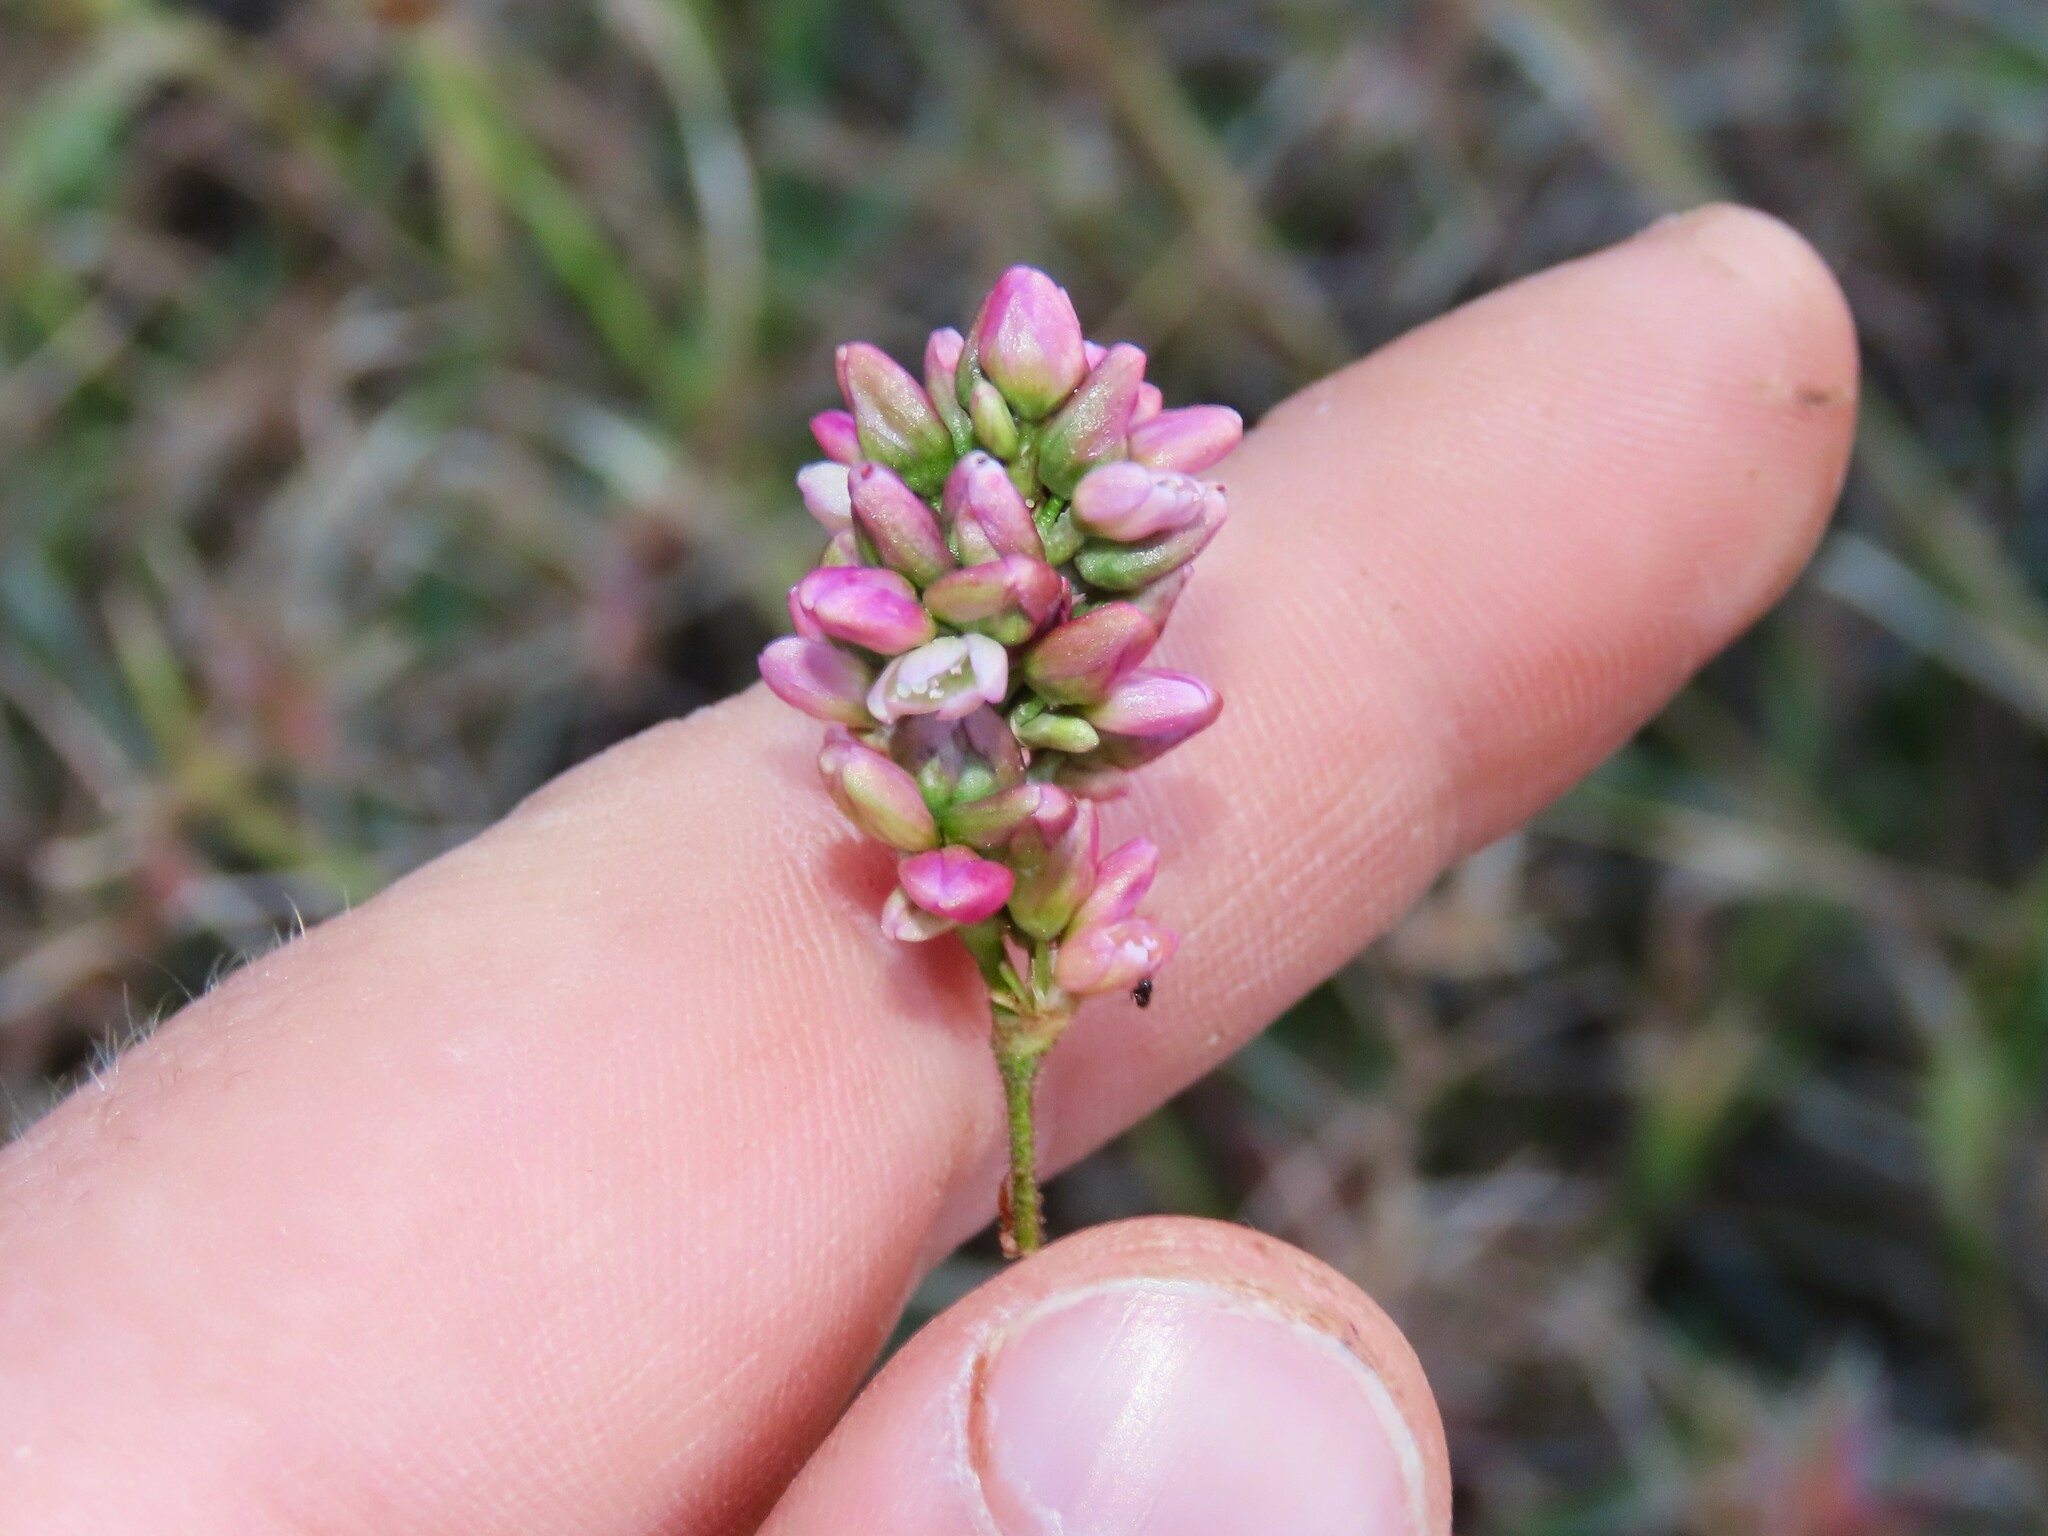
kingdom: Plantae
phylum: Tracheophyta
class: Magnoliopsida
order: Caryophyllales
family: Polygonaceae
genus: Persicaria
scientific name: Persicaria pensylvanica
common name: Pinkweed
